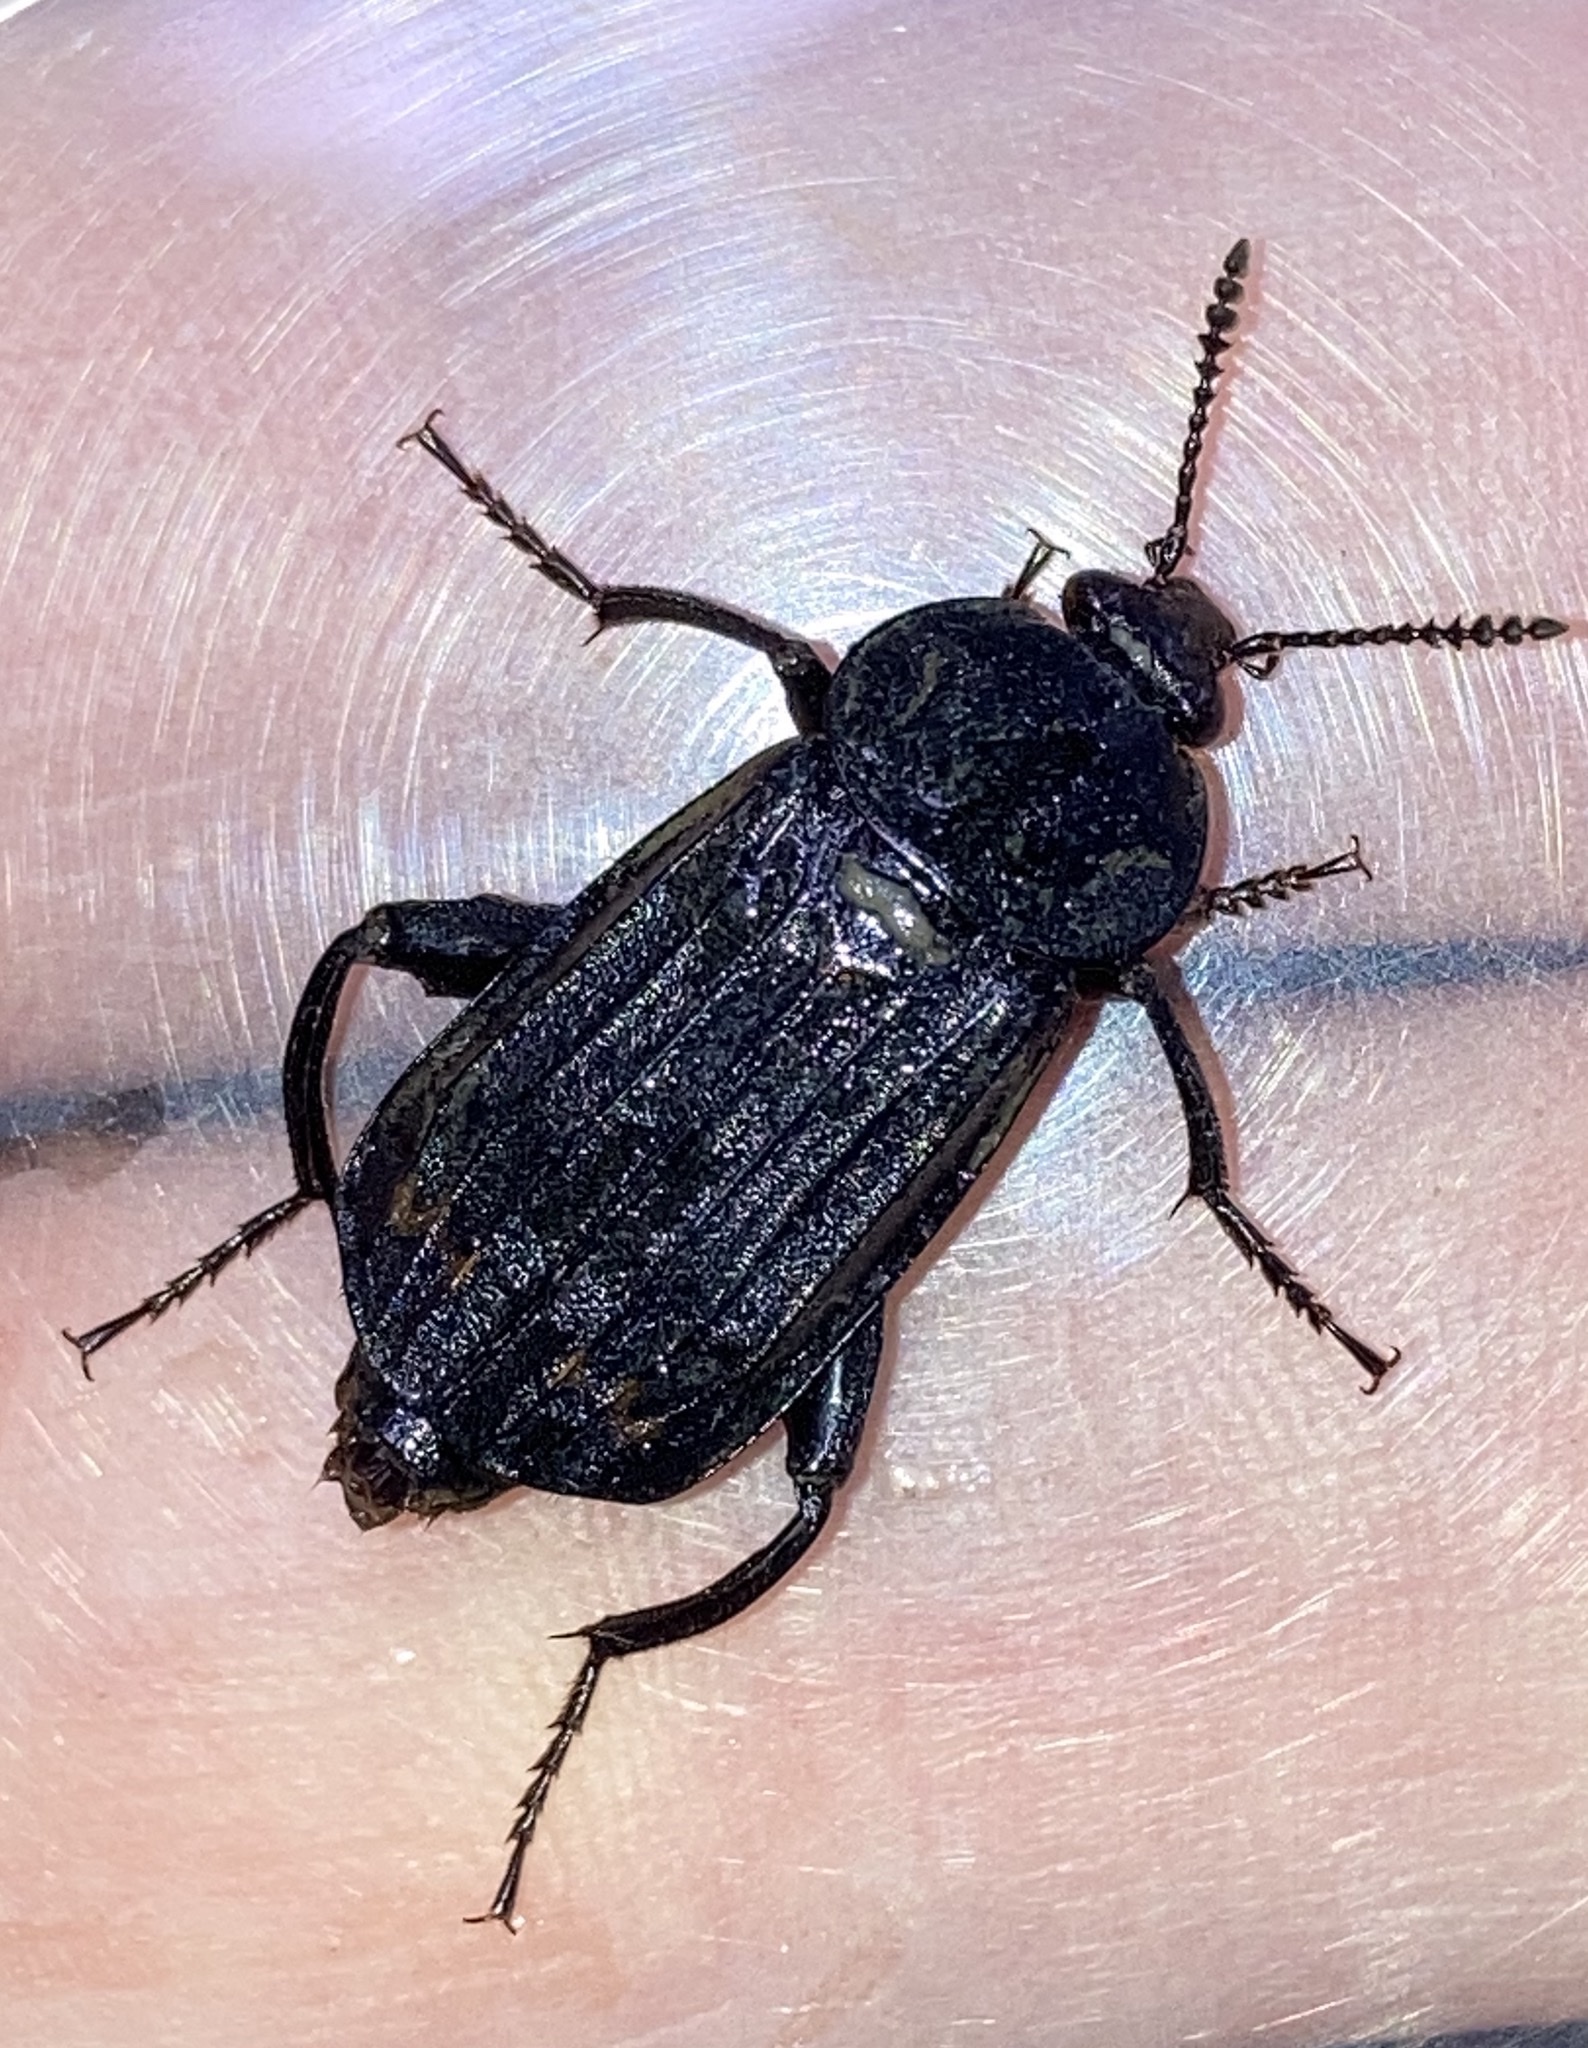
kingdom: Animalia
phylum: Arthropoda
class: Insecta
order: Coleoptera
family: Staphylinidae
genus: Necrodes
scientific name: Necrodes surinamensis
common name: Red-lined carrion beetle
